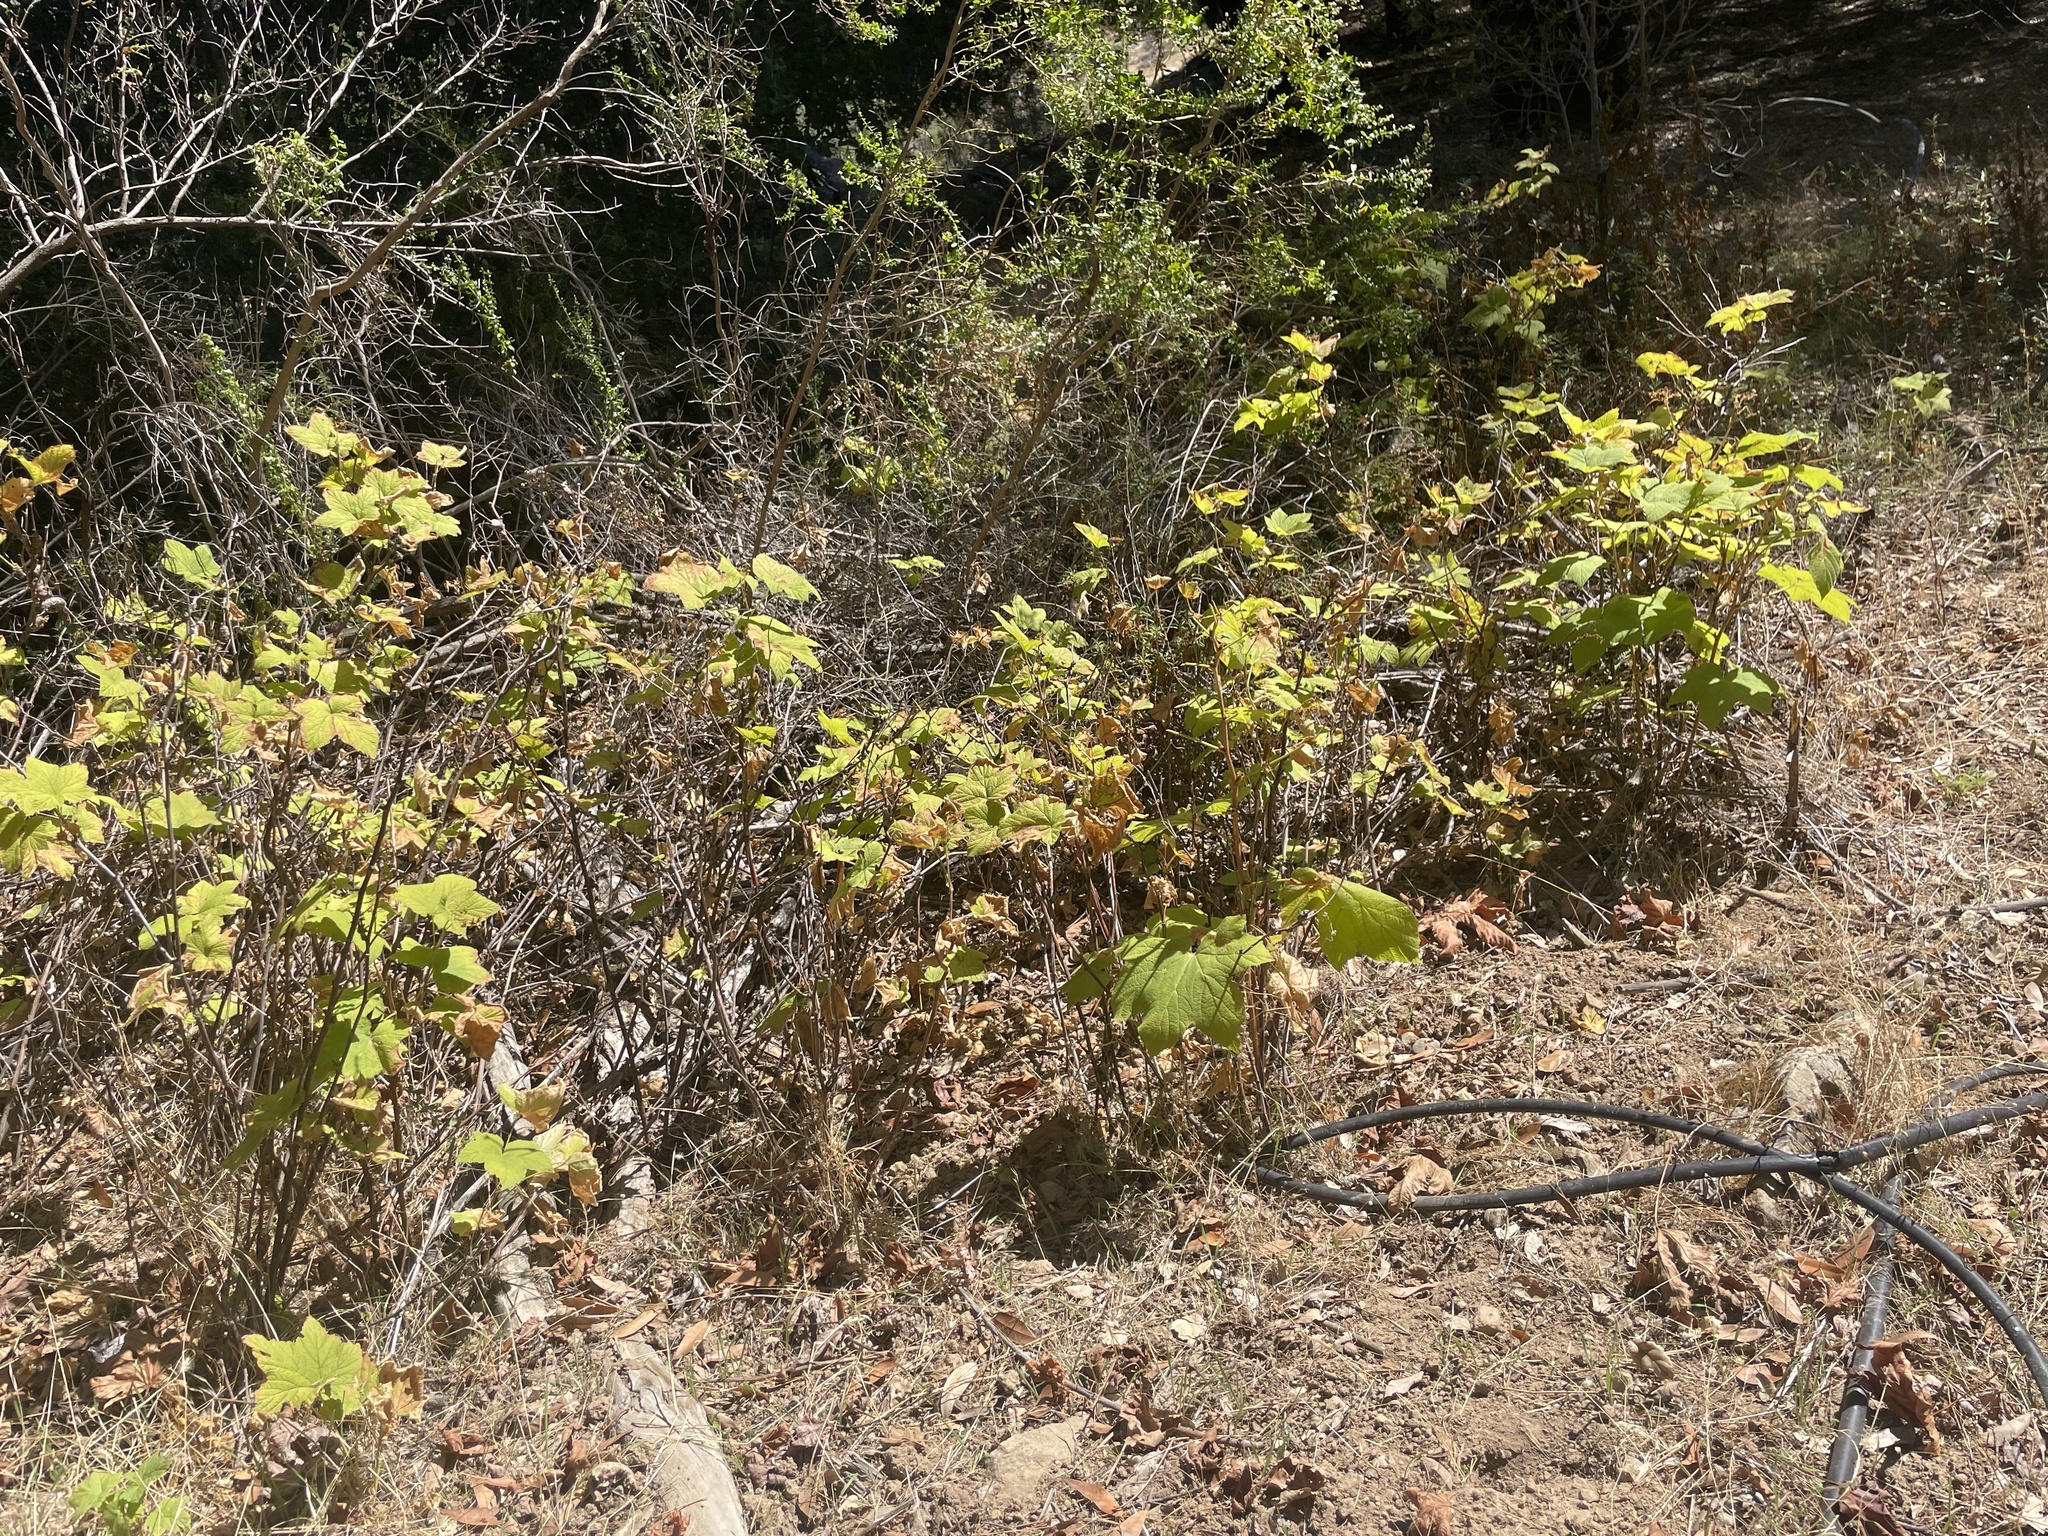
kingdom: Plantae
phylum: Tracheophyta
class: Magnoliopsida
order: Rosales
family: Rosaceae
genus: Rubus
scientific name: Rubus parviflorus
